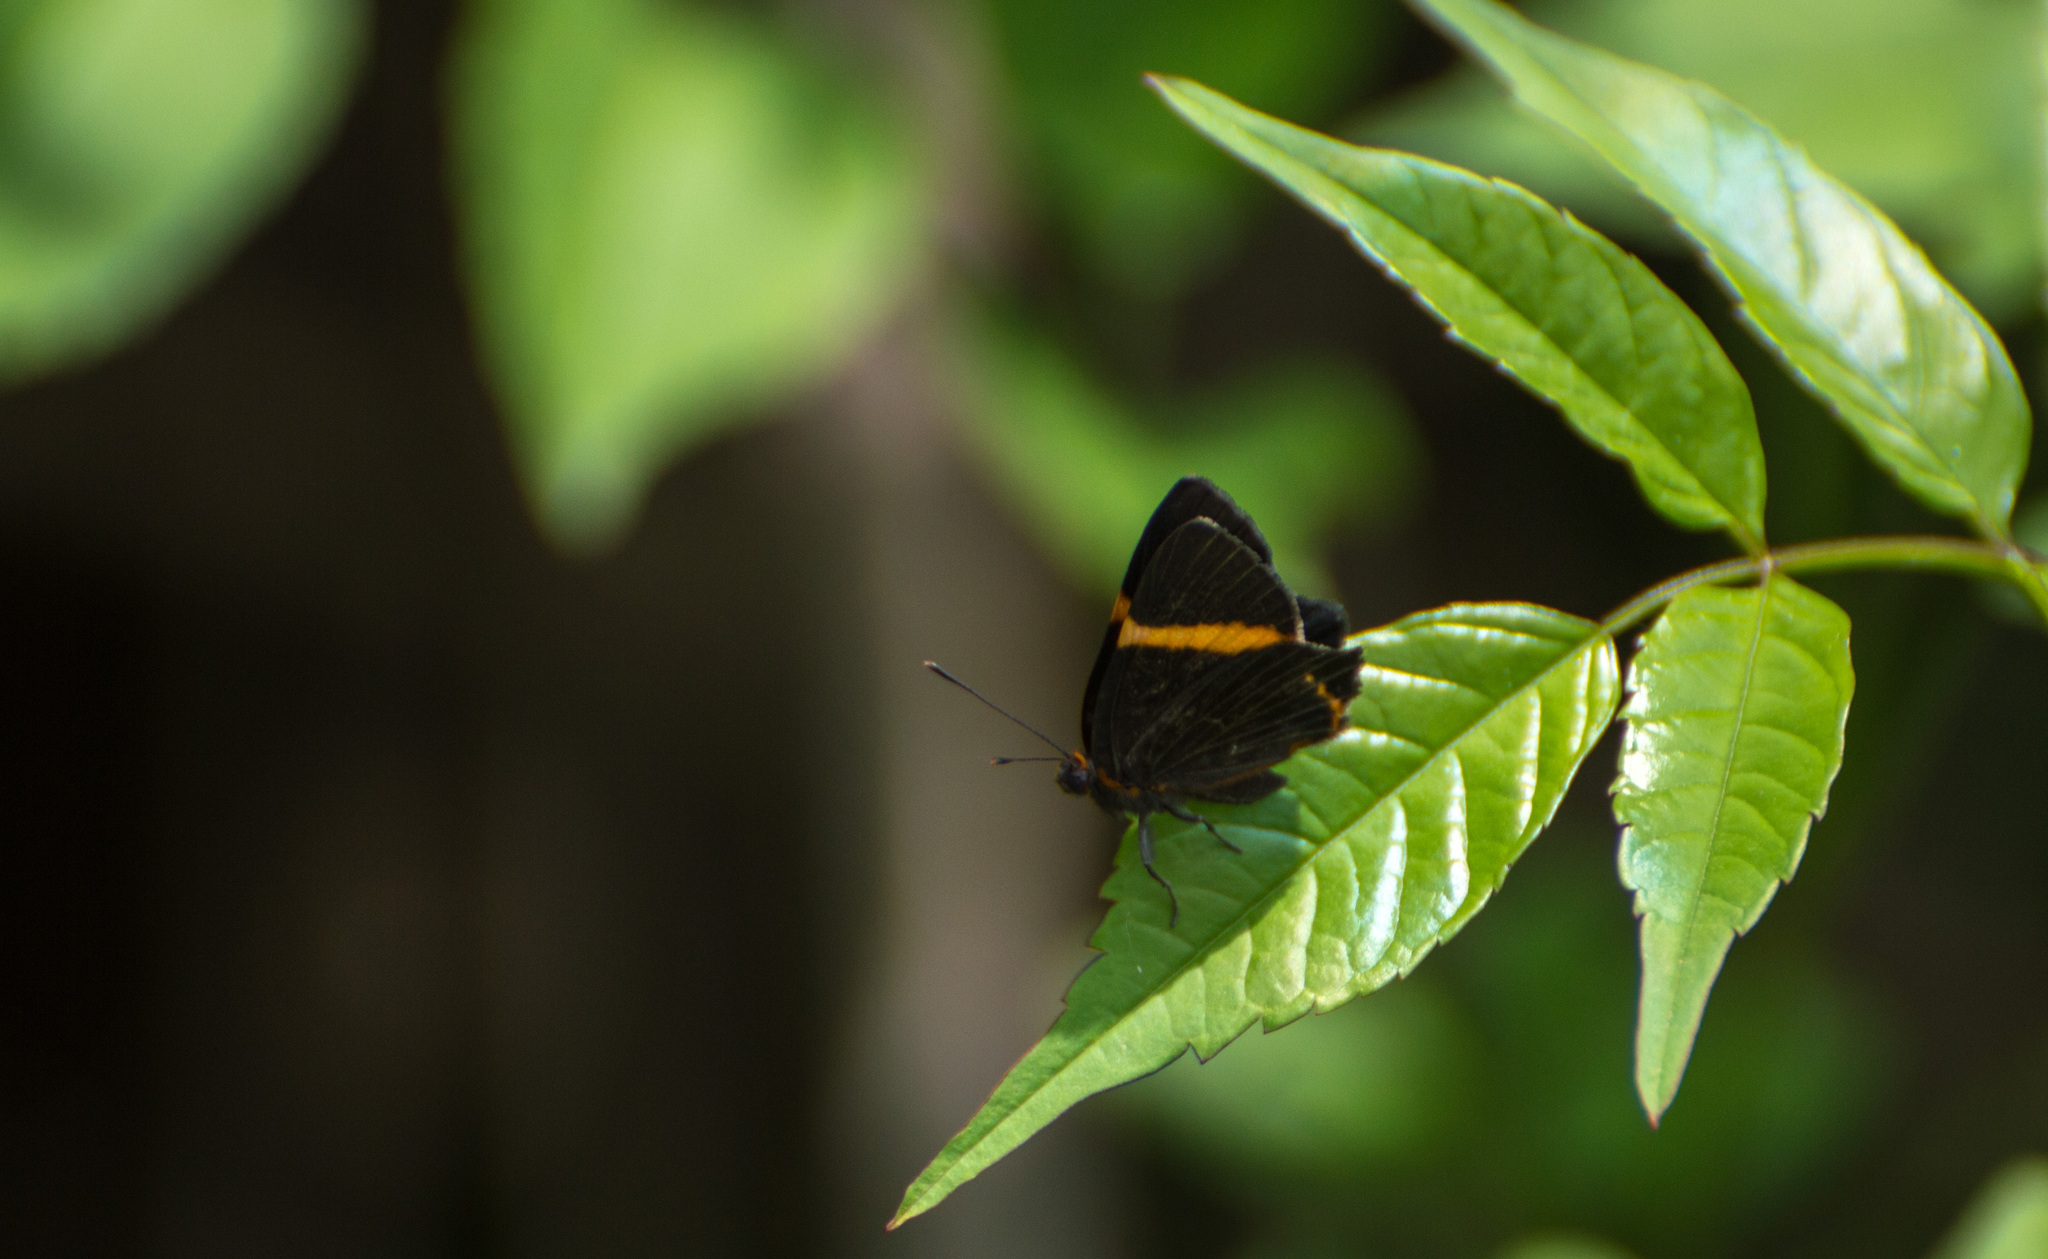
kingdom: Animalia
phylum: Arthropoda
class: Insecta
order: Lepidoptera
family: Riodinidae
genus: Riodina
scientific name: Riodina lysippoides
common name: Little dancer metalmark
